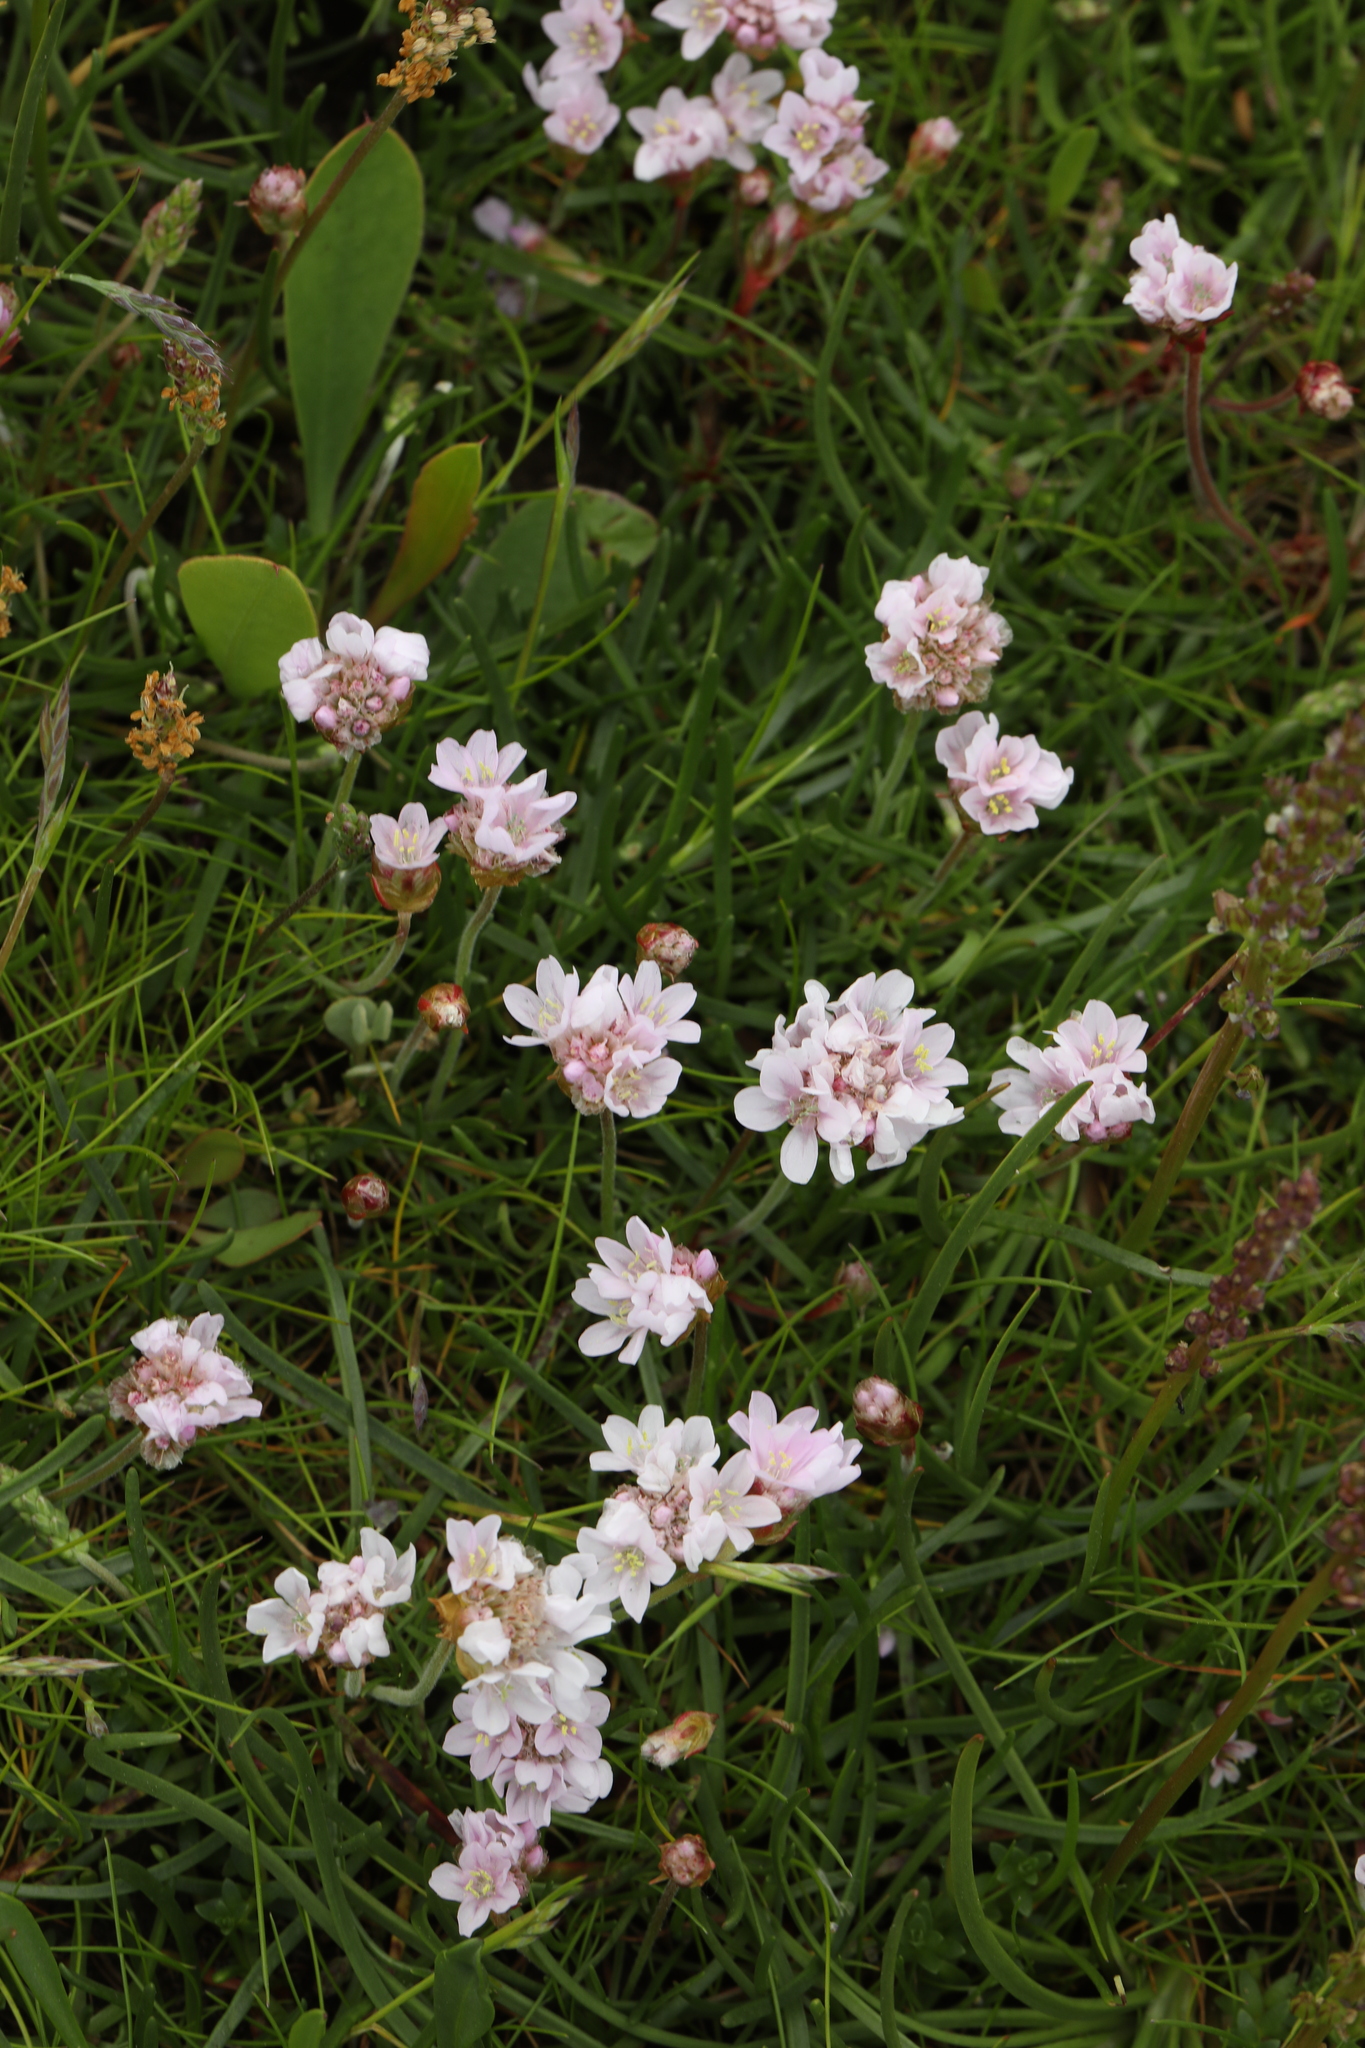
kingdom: Plantae
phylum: Tracheophyta
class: Magnoliopsida
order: Caryophyllales
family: Plumbaginaceae
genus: Armeria
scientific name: Armeria maritima
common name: Thrift
